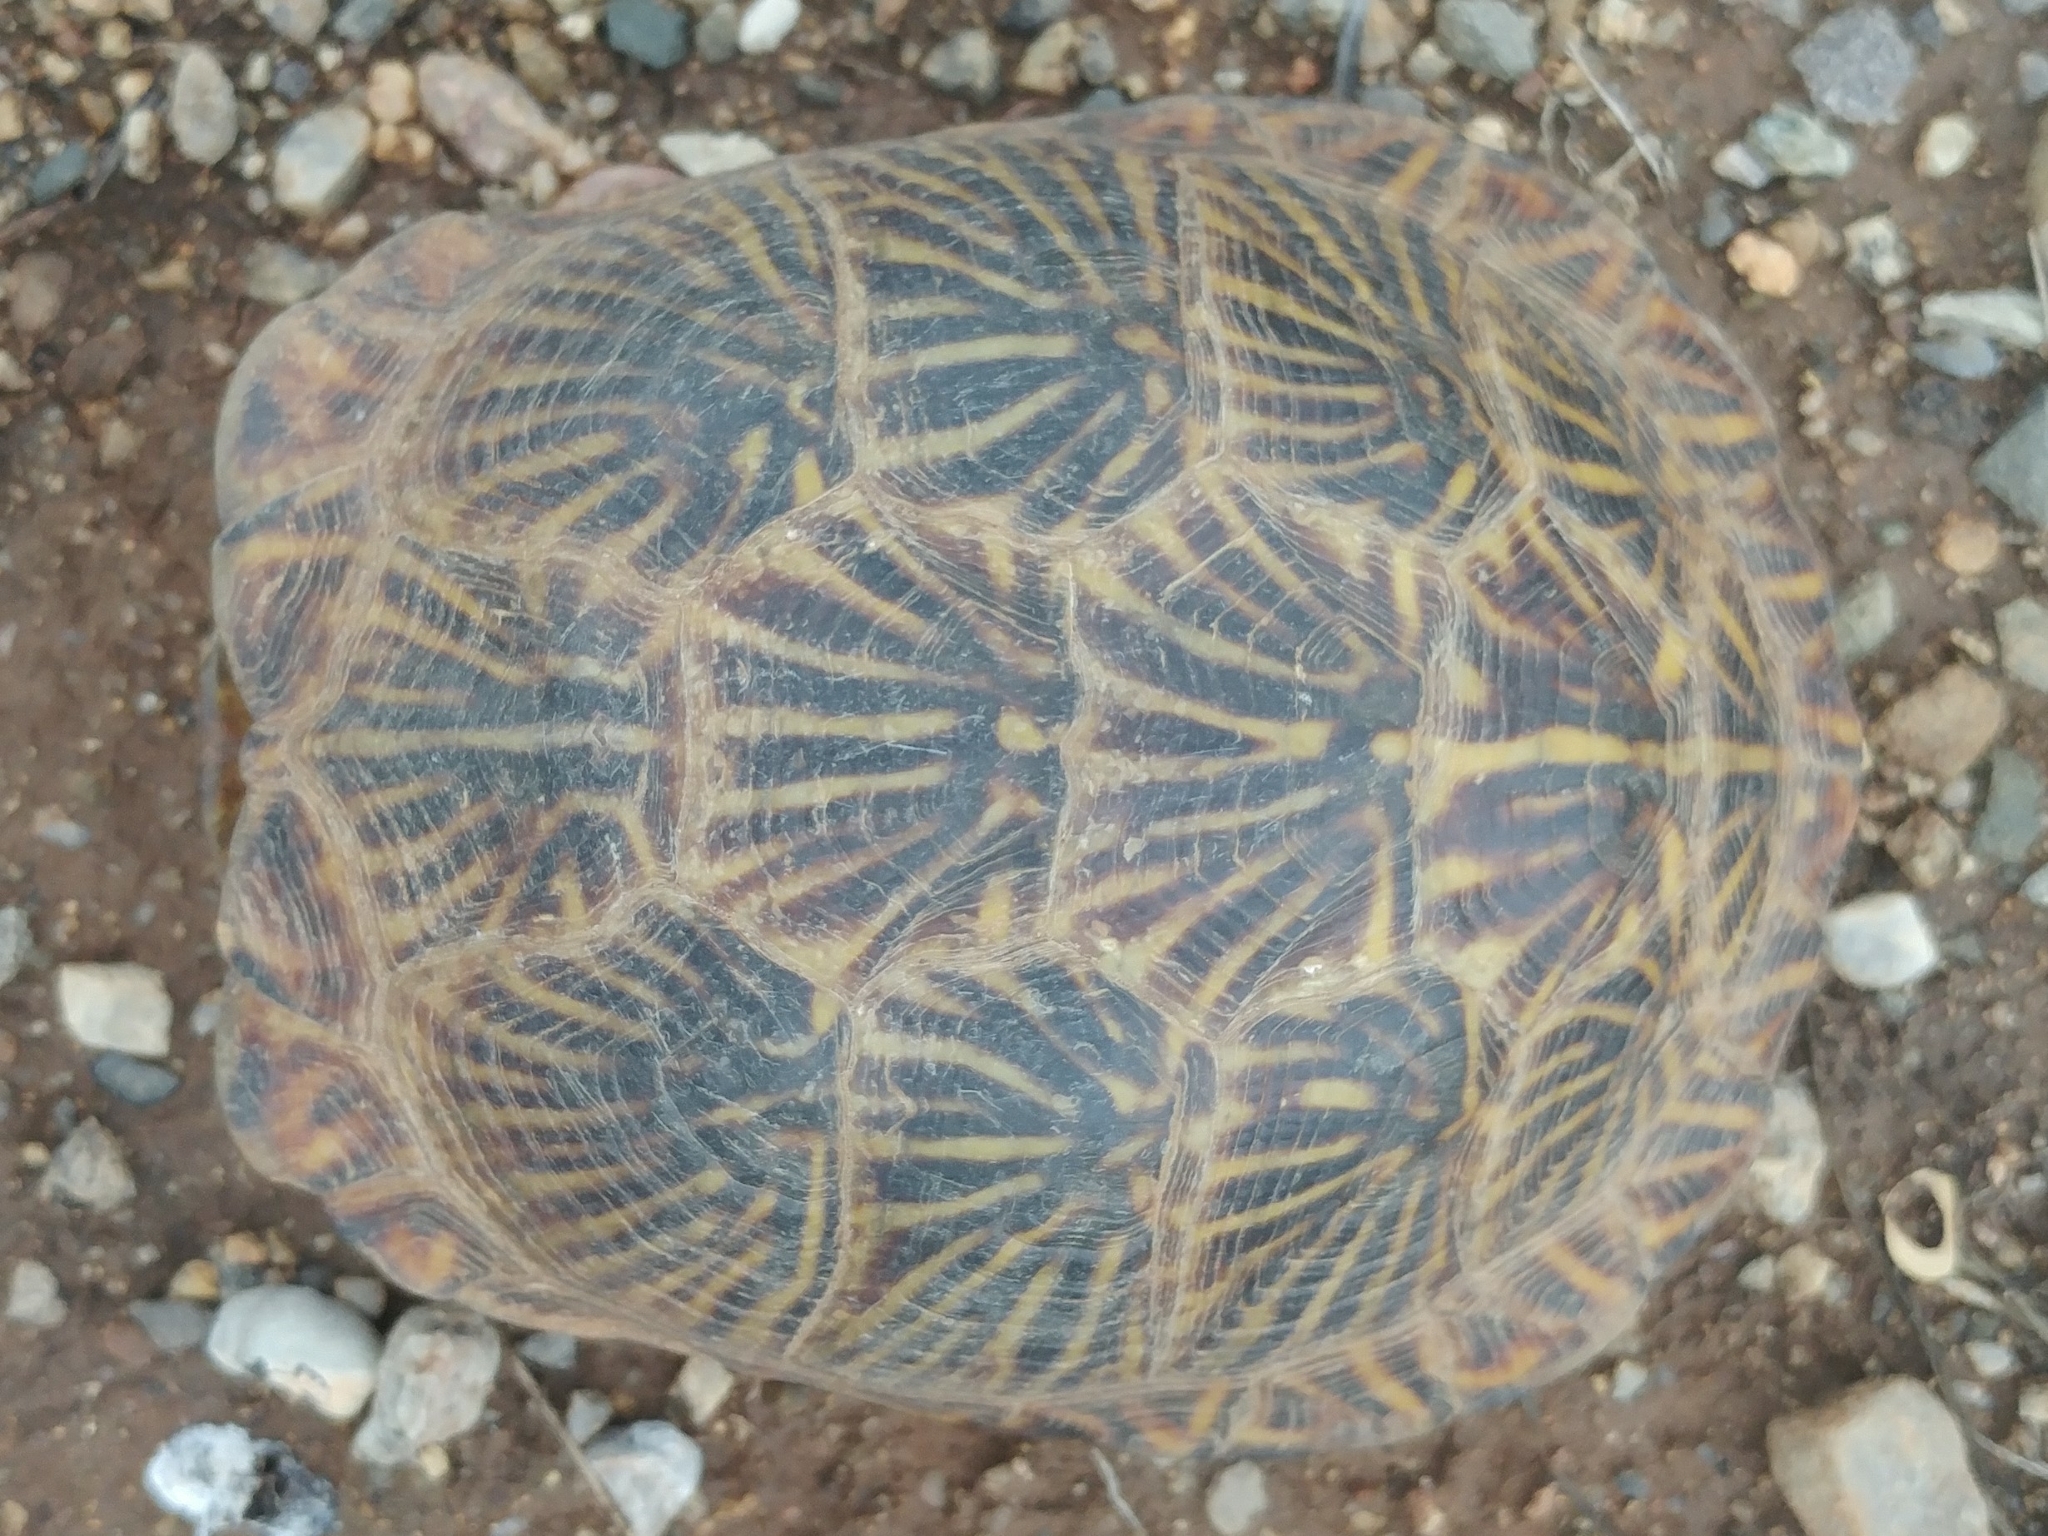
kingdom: Animalia
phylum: Chordata
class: Testudines
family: Emydidae
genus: Terrapene
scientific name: Terrapene ornata
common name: Western box turtle
